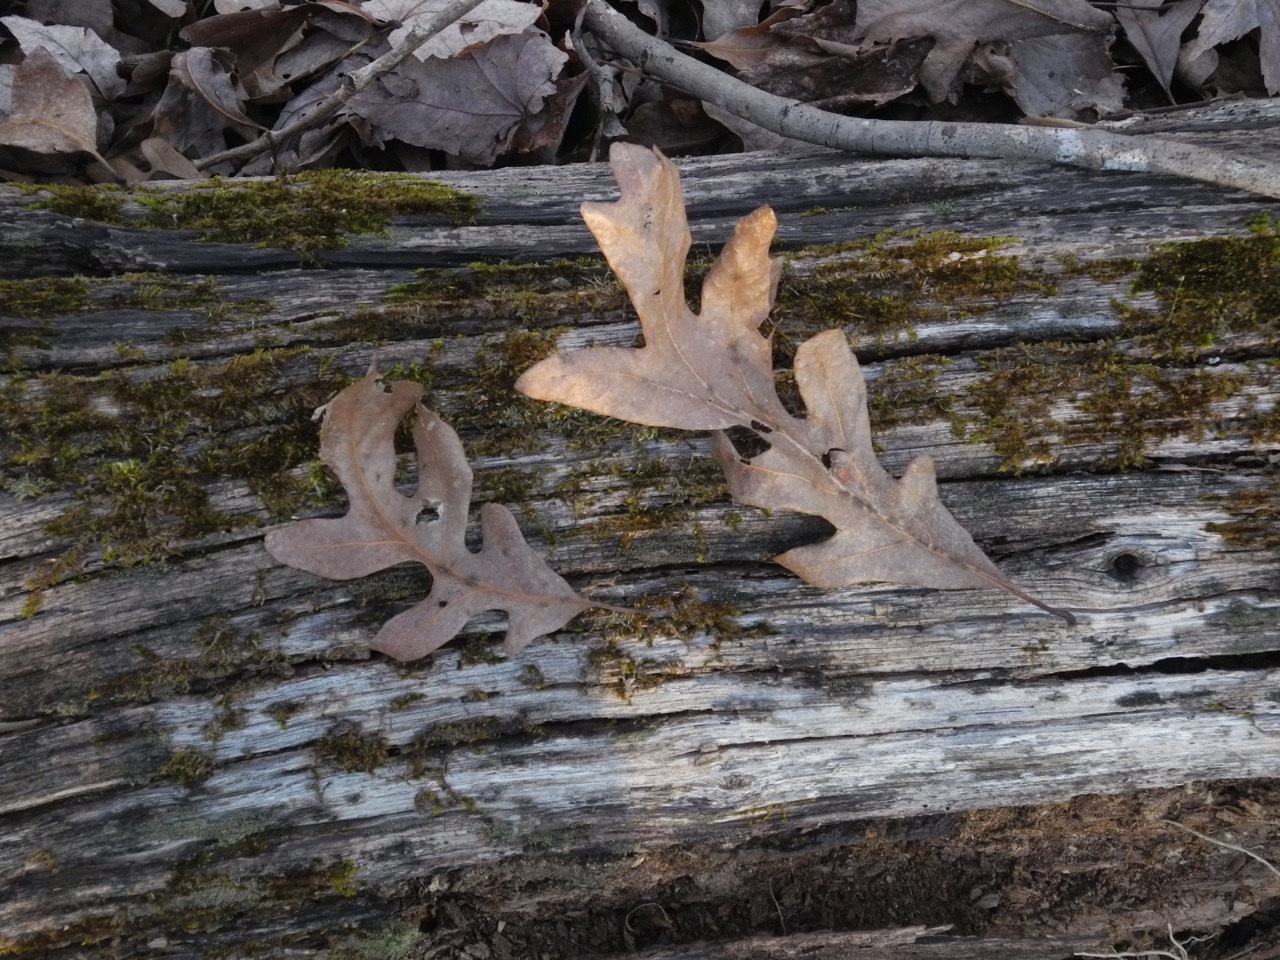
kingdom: Plantae
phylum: Tracheophyta
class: Magnoliopsida
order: Fagales
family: Fagaceae
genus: Quercus
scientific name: Quercus alba
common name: White oak
